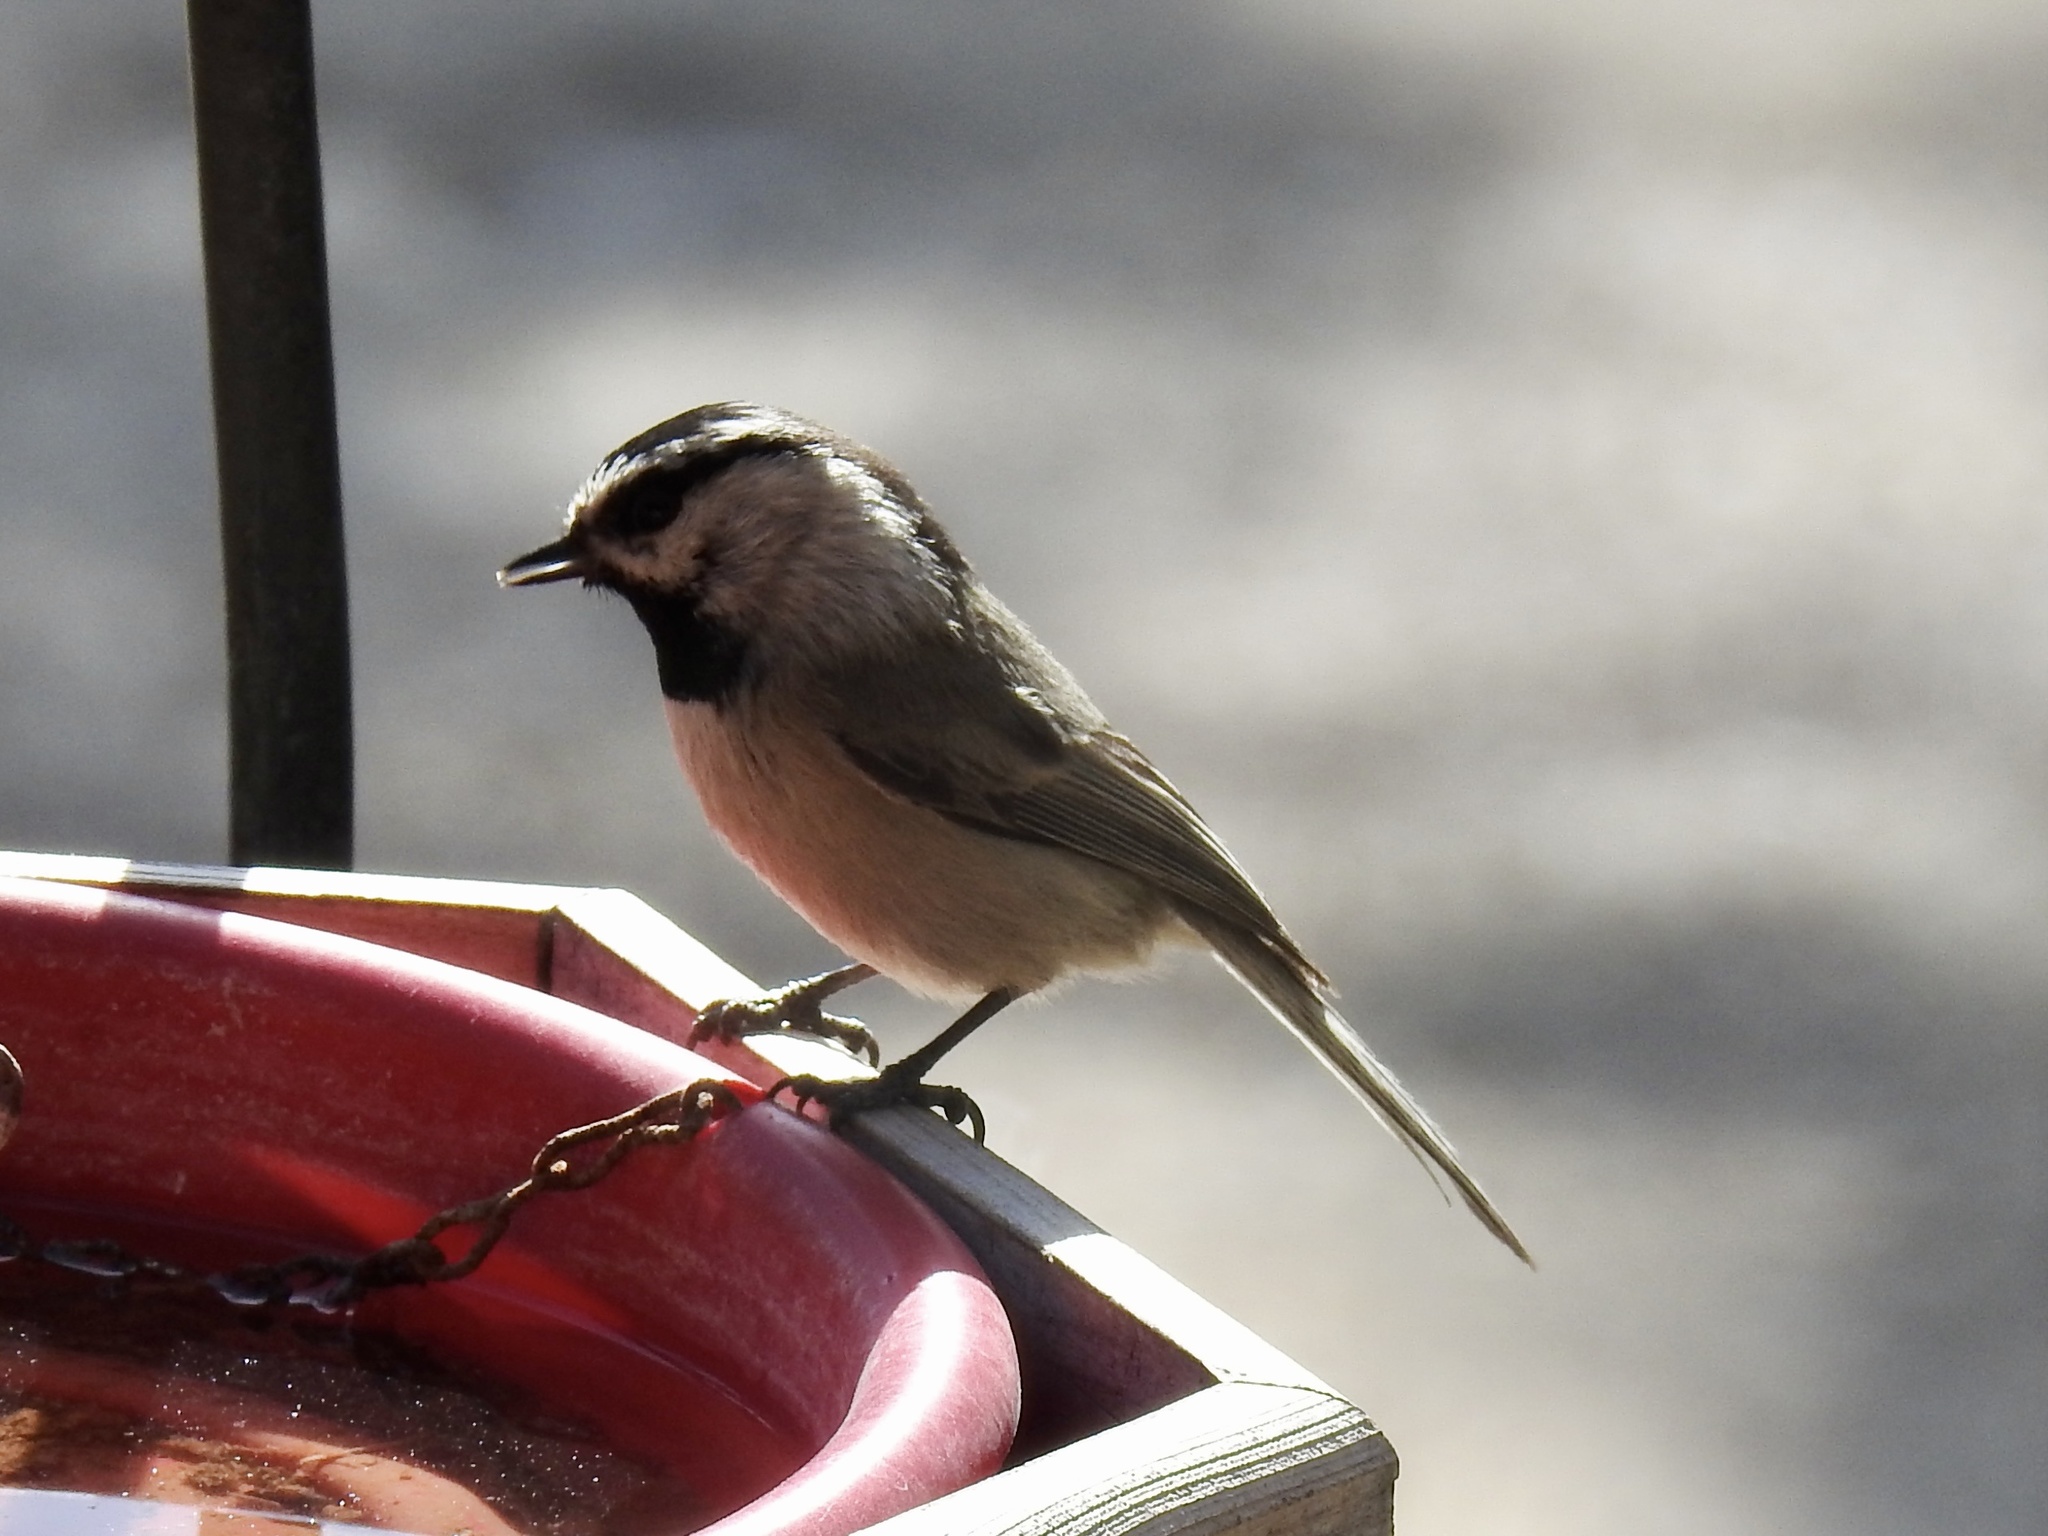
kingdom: Animalia
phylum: Chordata
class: Aves
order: Passeriformes
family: Paridae
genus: Poecile
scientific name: Poecile gambeli
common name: Mountain chickadee
